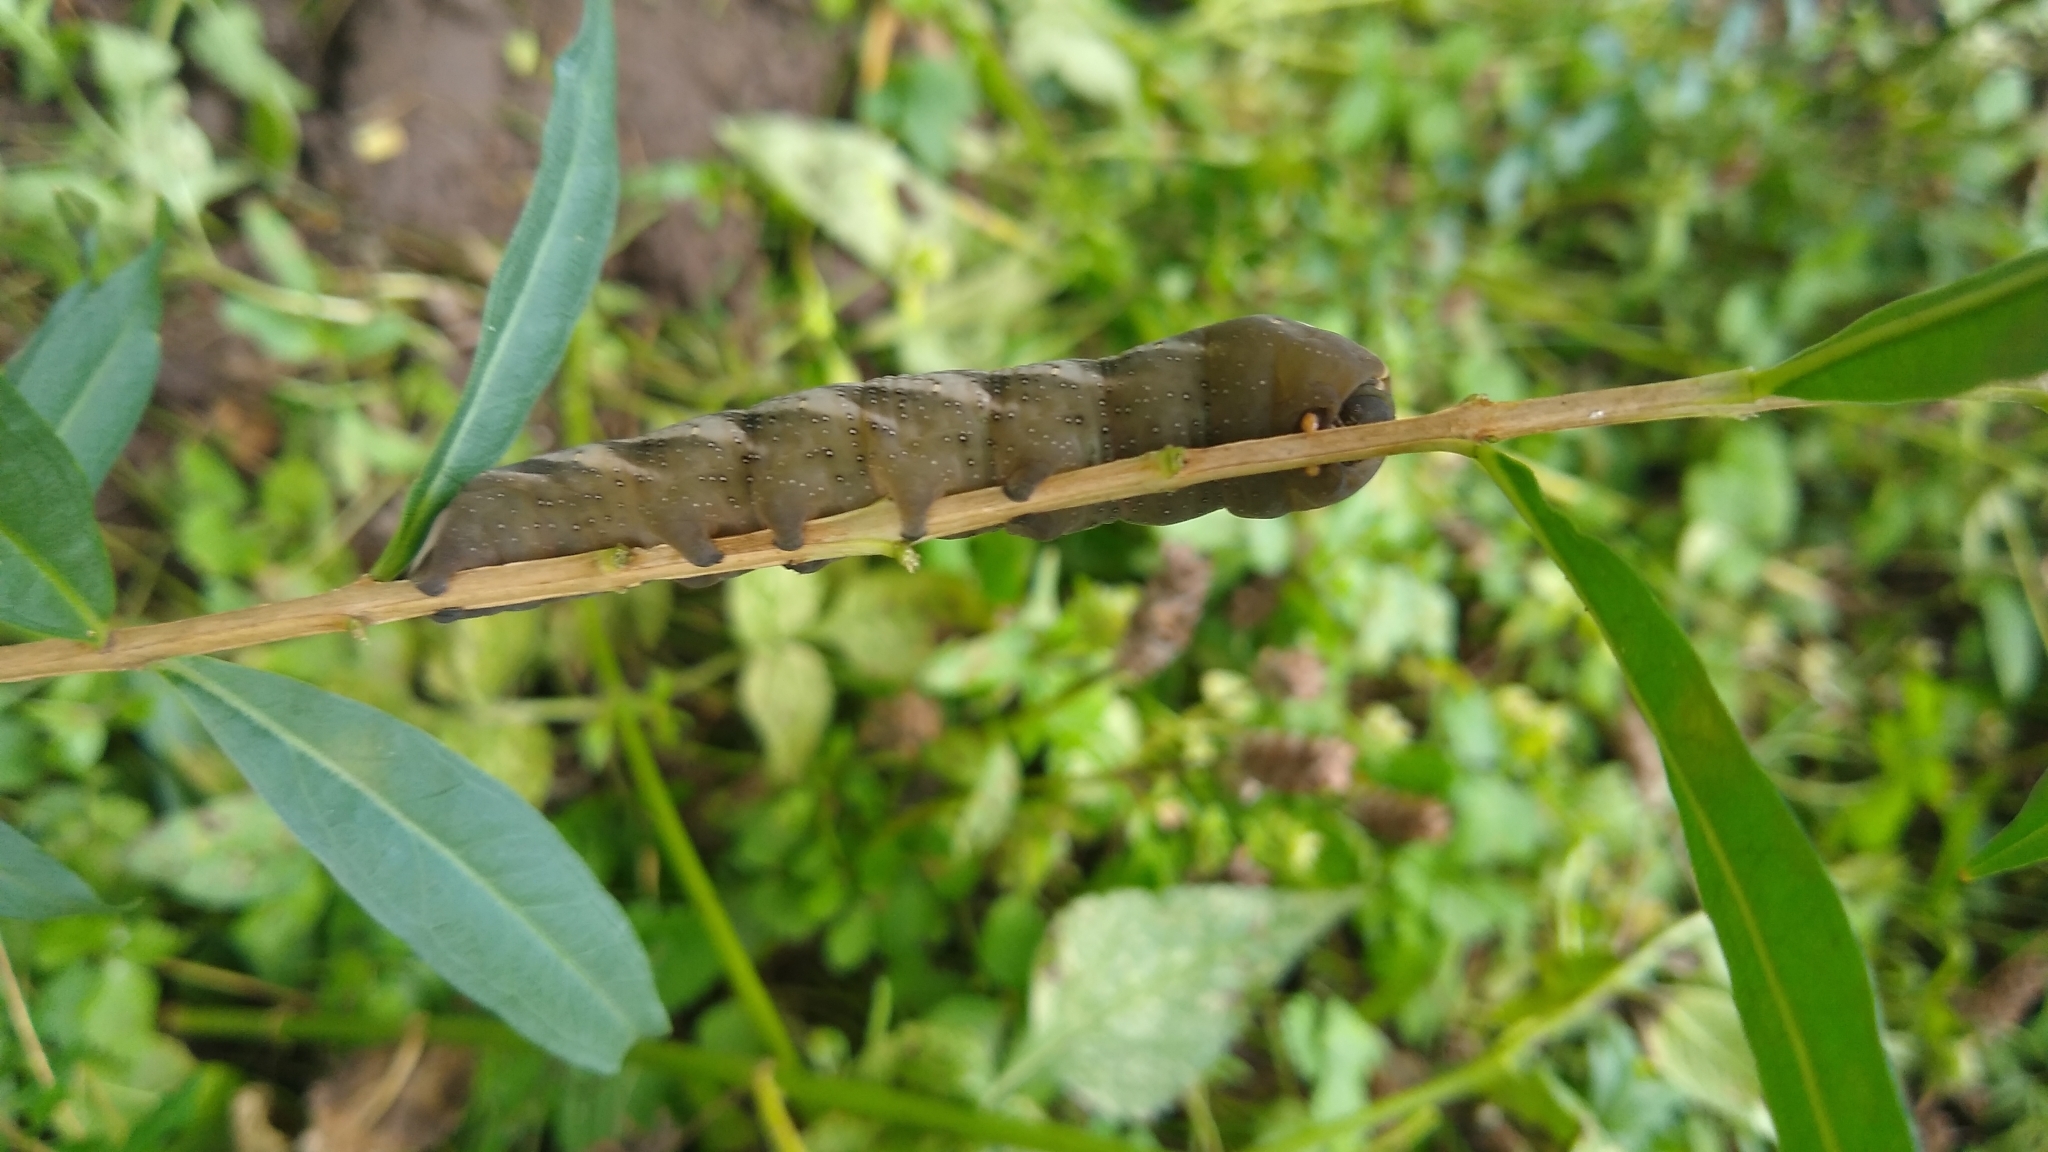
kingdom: Animalia
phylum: Arthropoda
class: Insecta
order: Lepidoptera
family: Sphingidae
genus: Xylophanes
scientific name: Xylophanes tersa
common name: Tersa sphinx
